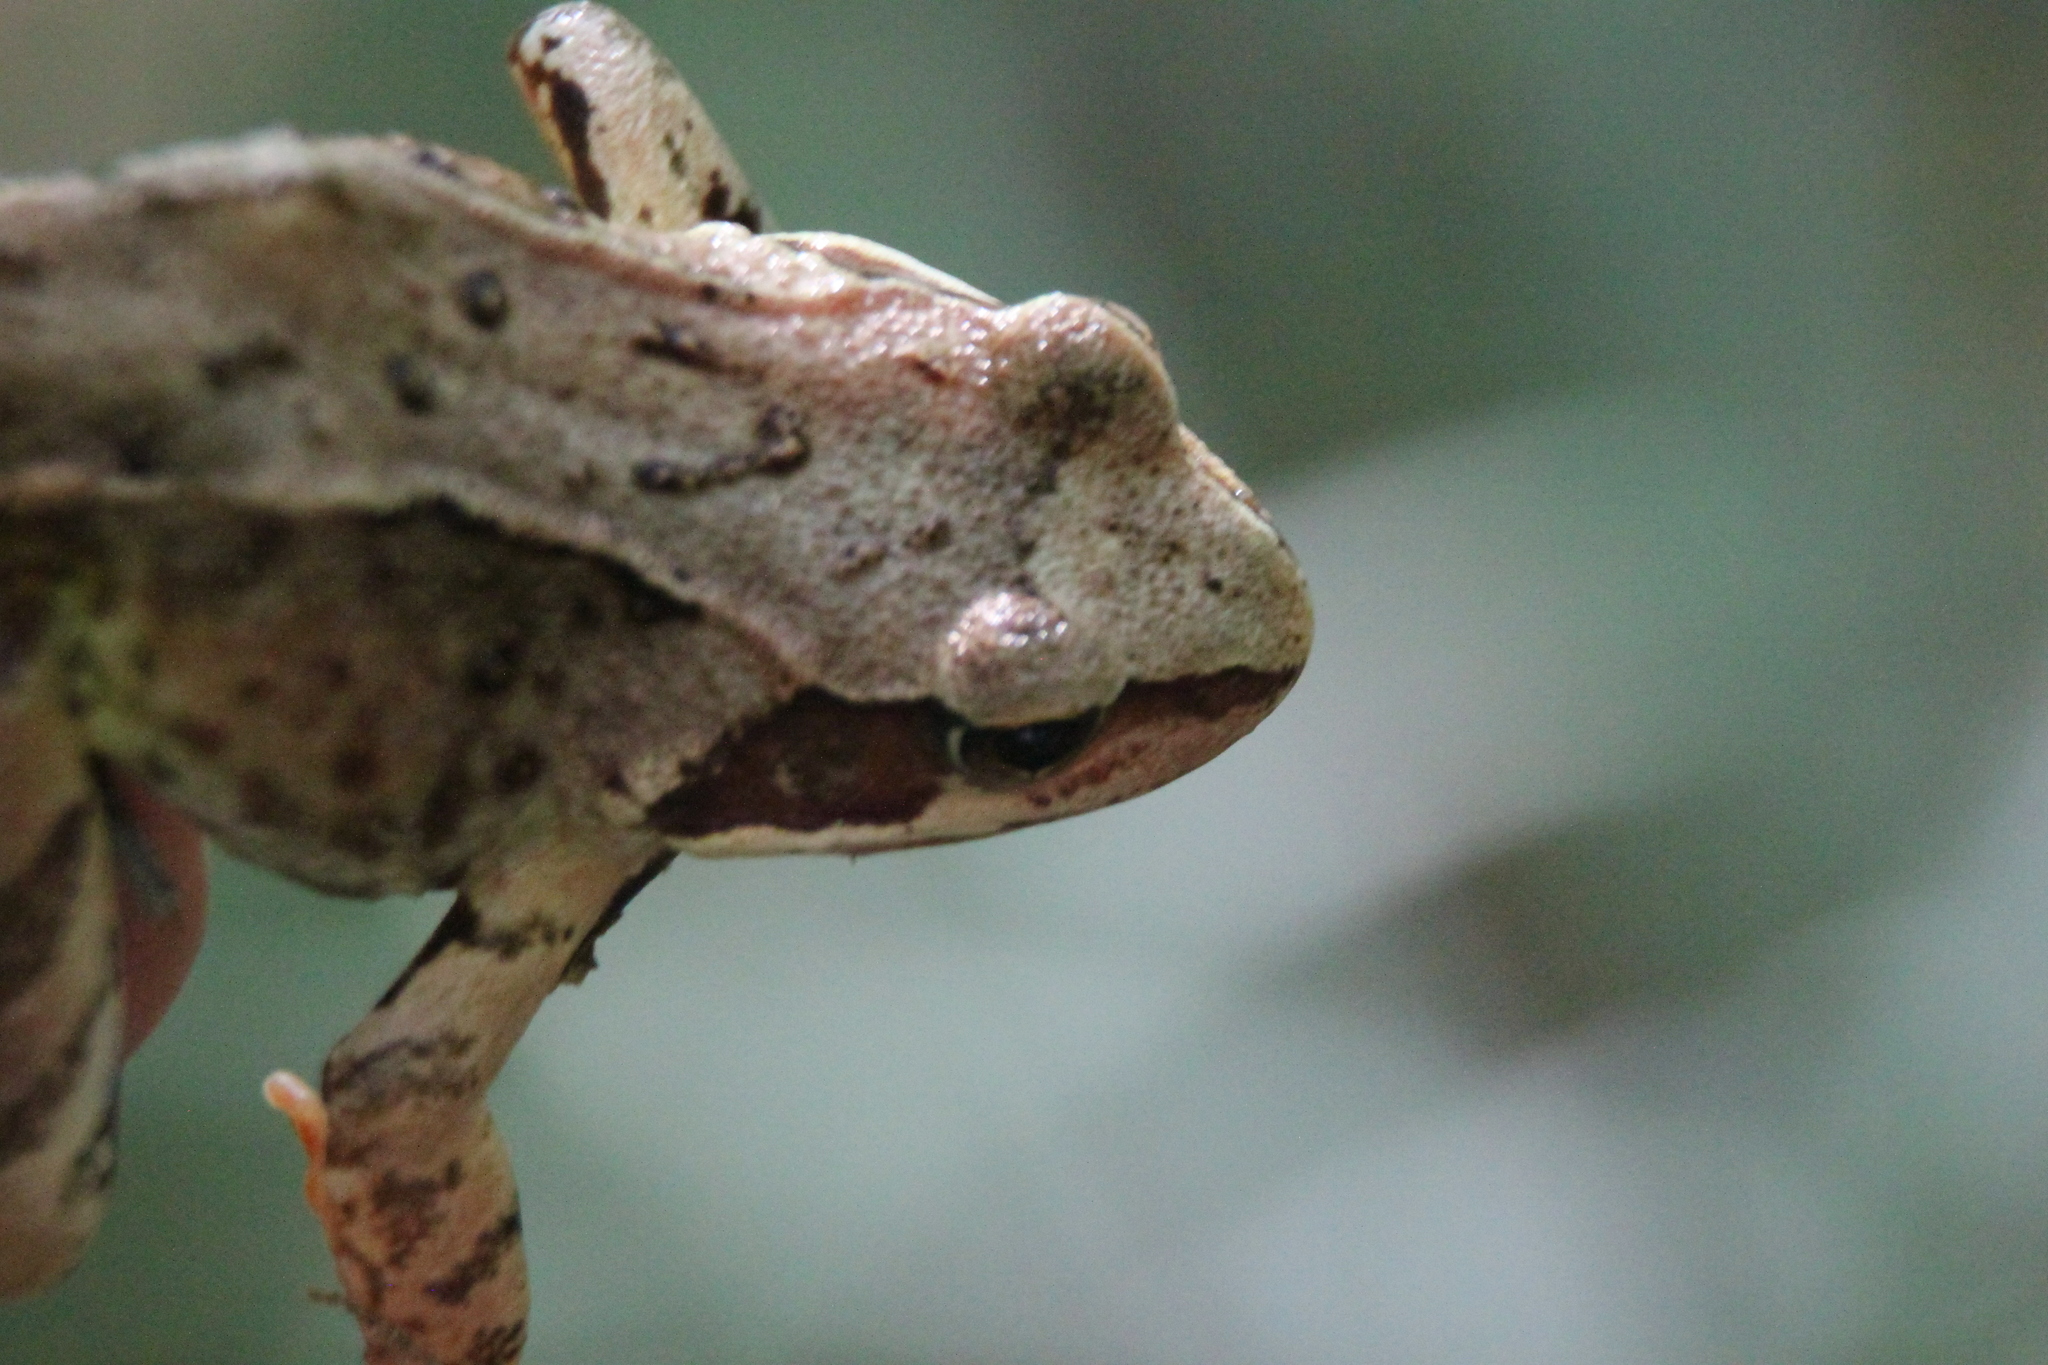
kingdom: Animalia
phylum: Chordata
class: Amphibia
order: Anura
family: Ranidae
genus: Rana
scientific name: Rana temporaria
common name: Common frog
